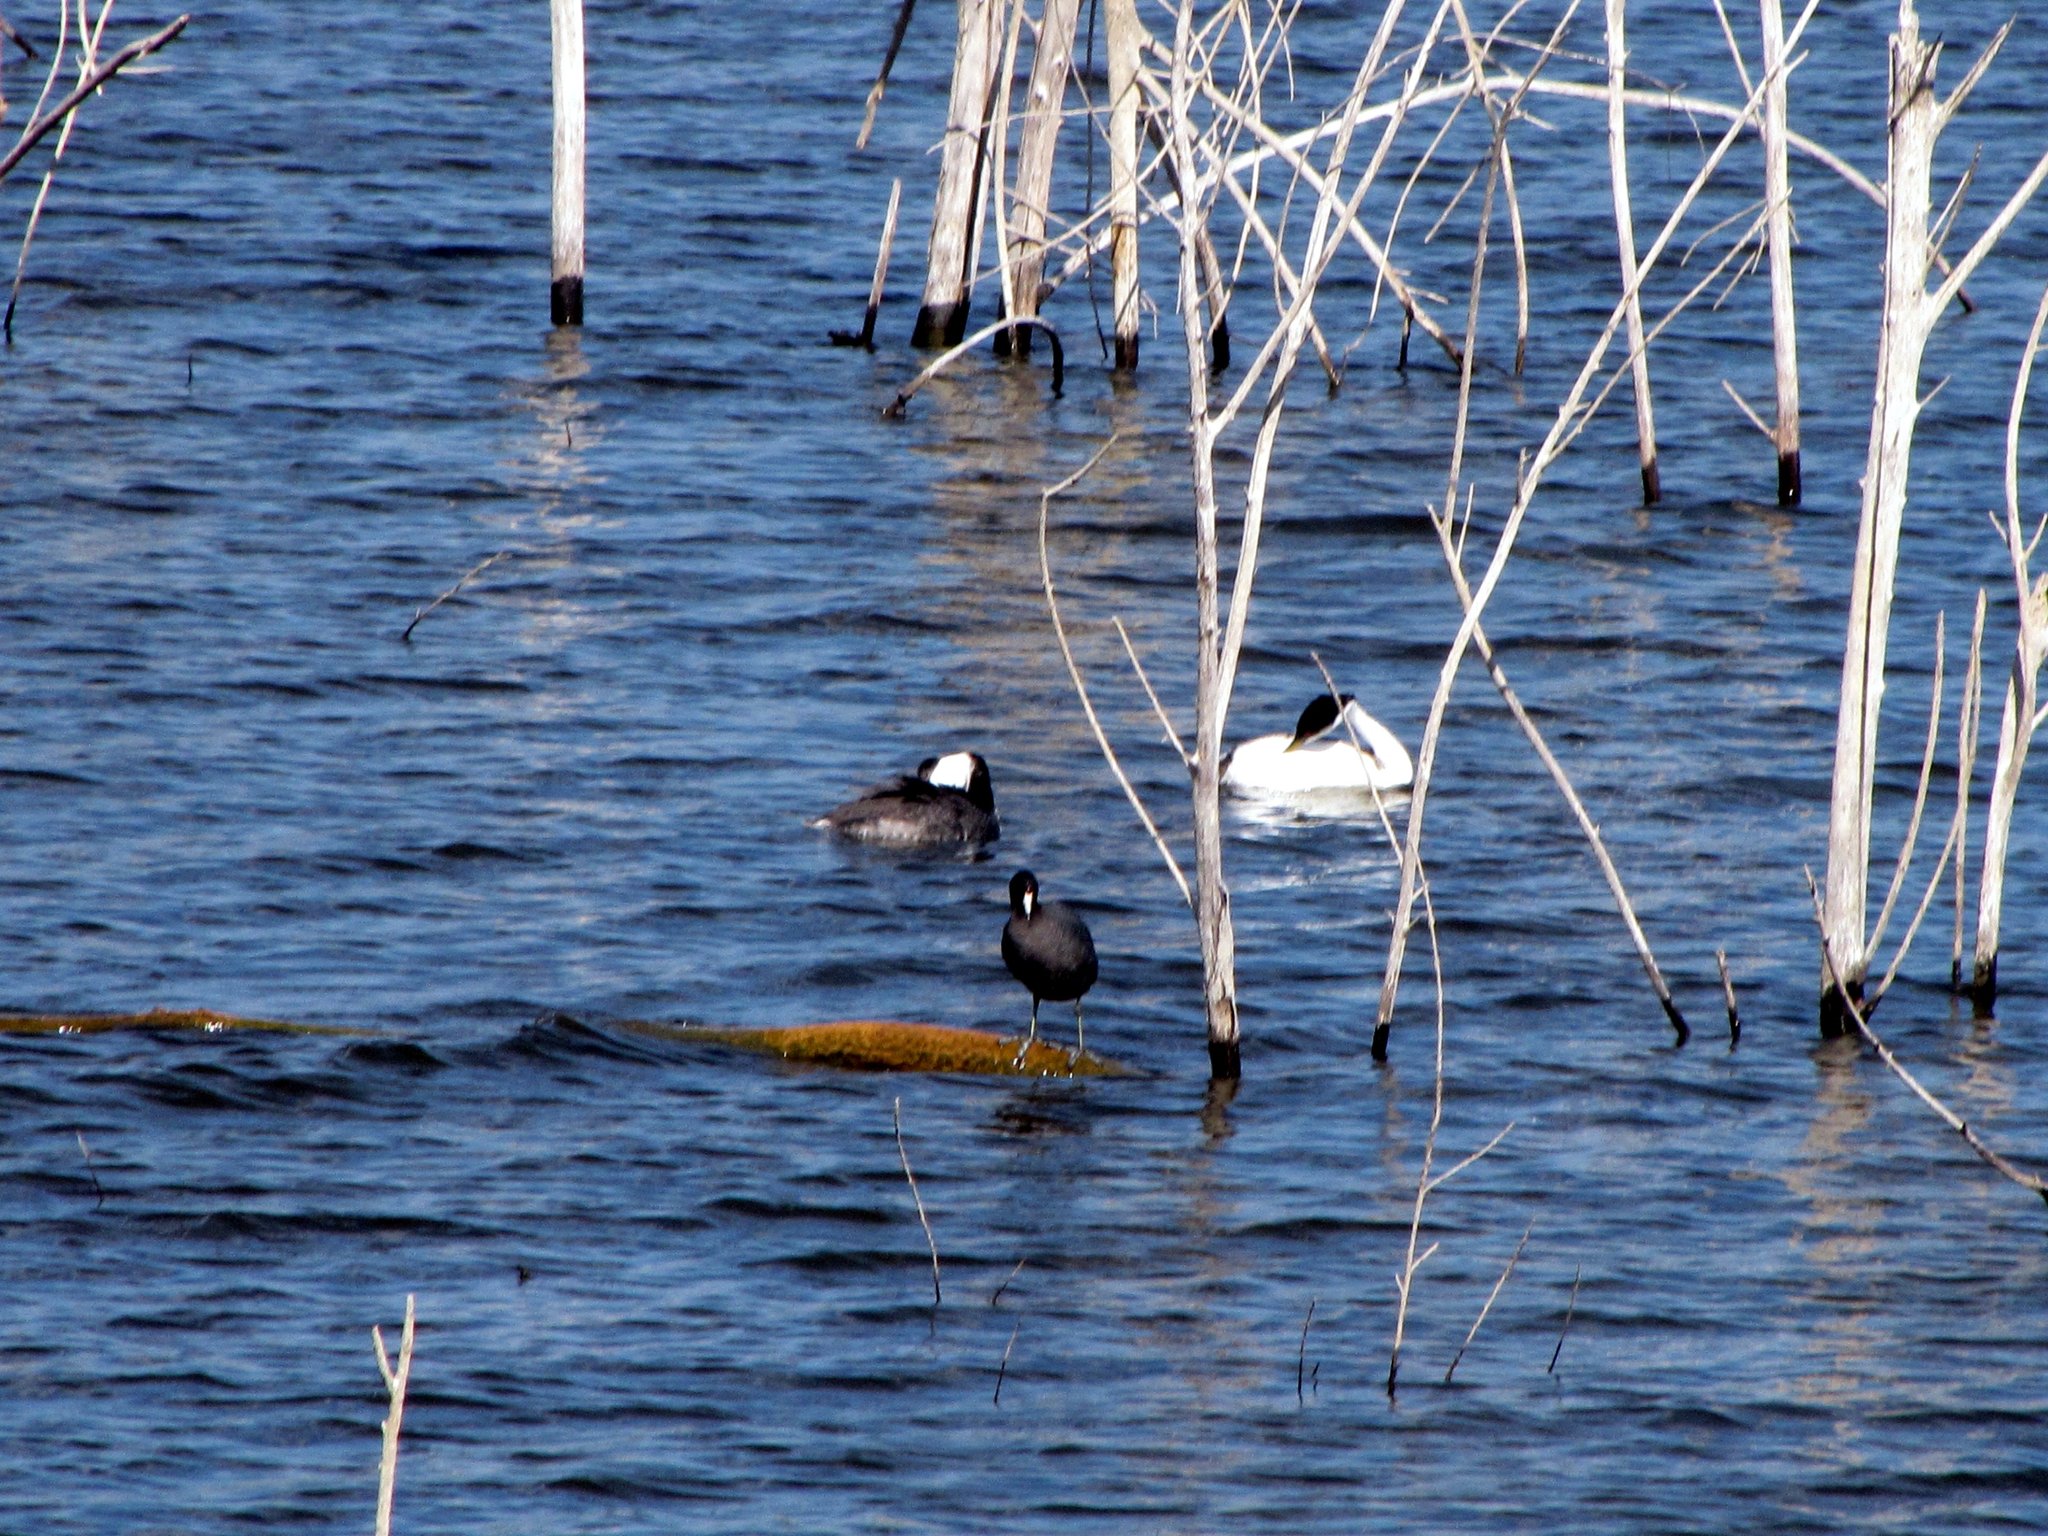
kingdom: Animalia
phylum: Chordata
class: Aves
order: Gruiformes
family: Rallidae
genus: Fulica
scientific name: Fulica americana
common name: American coot
